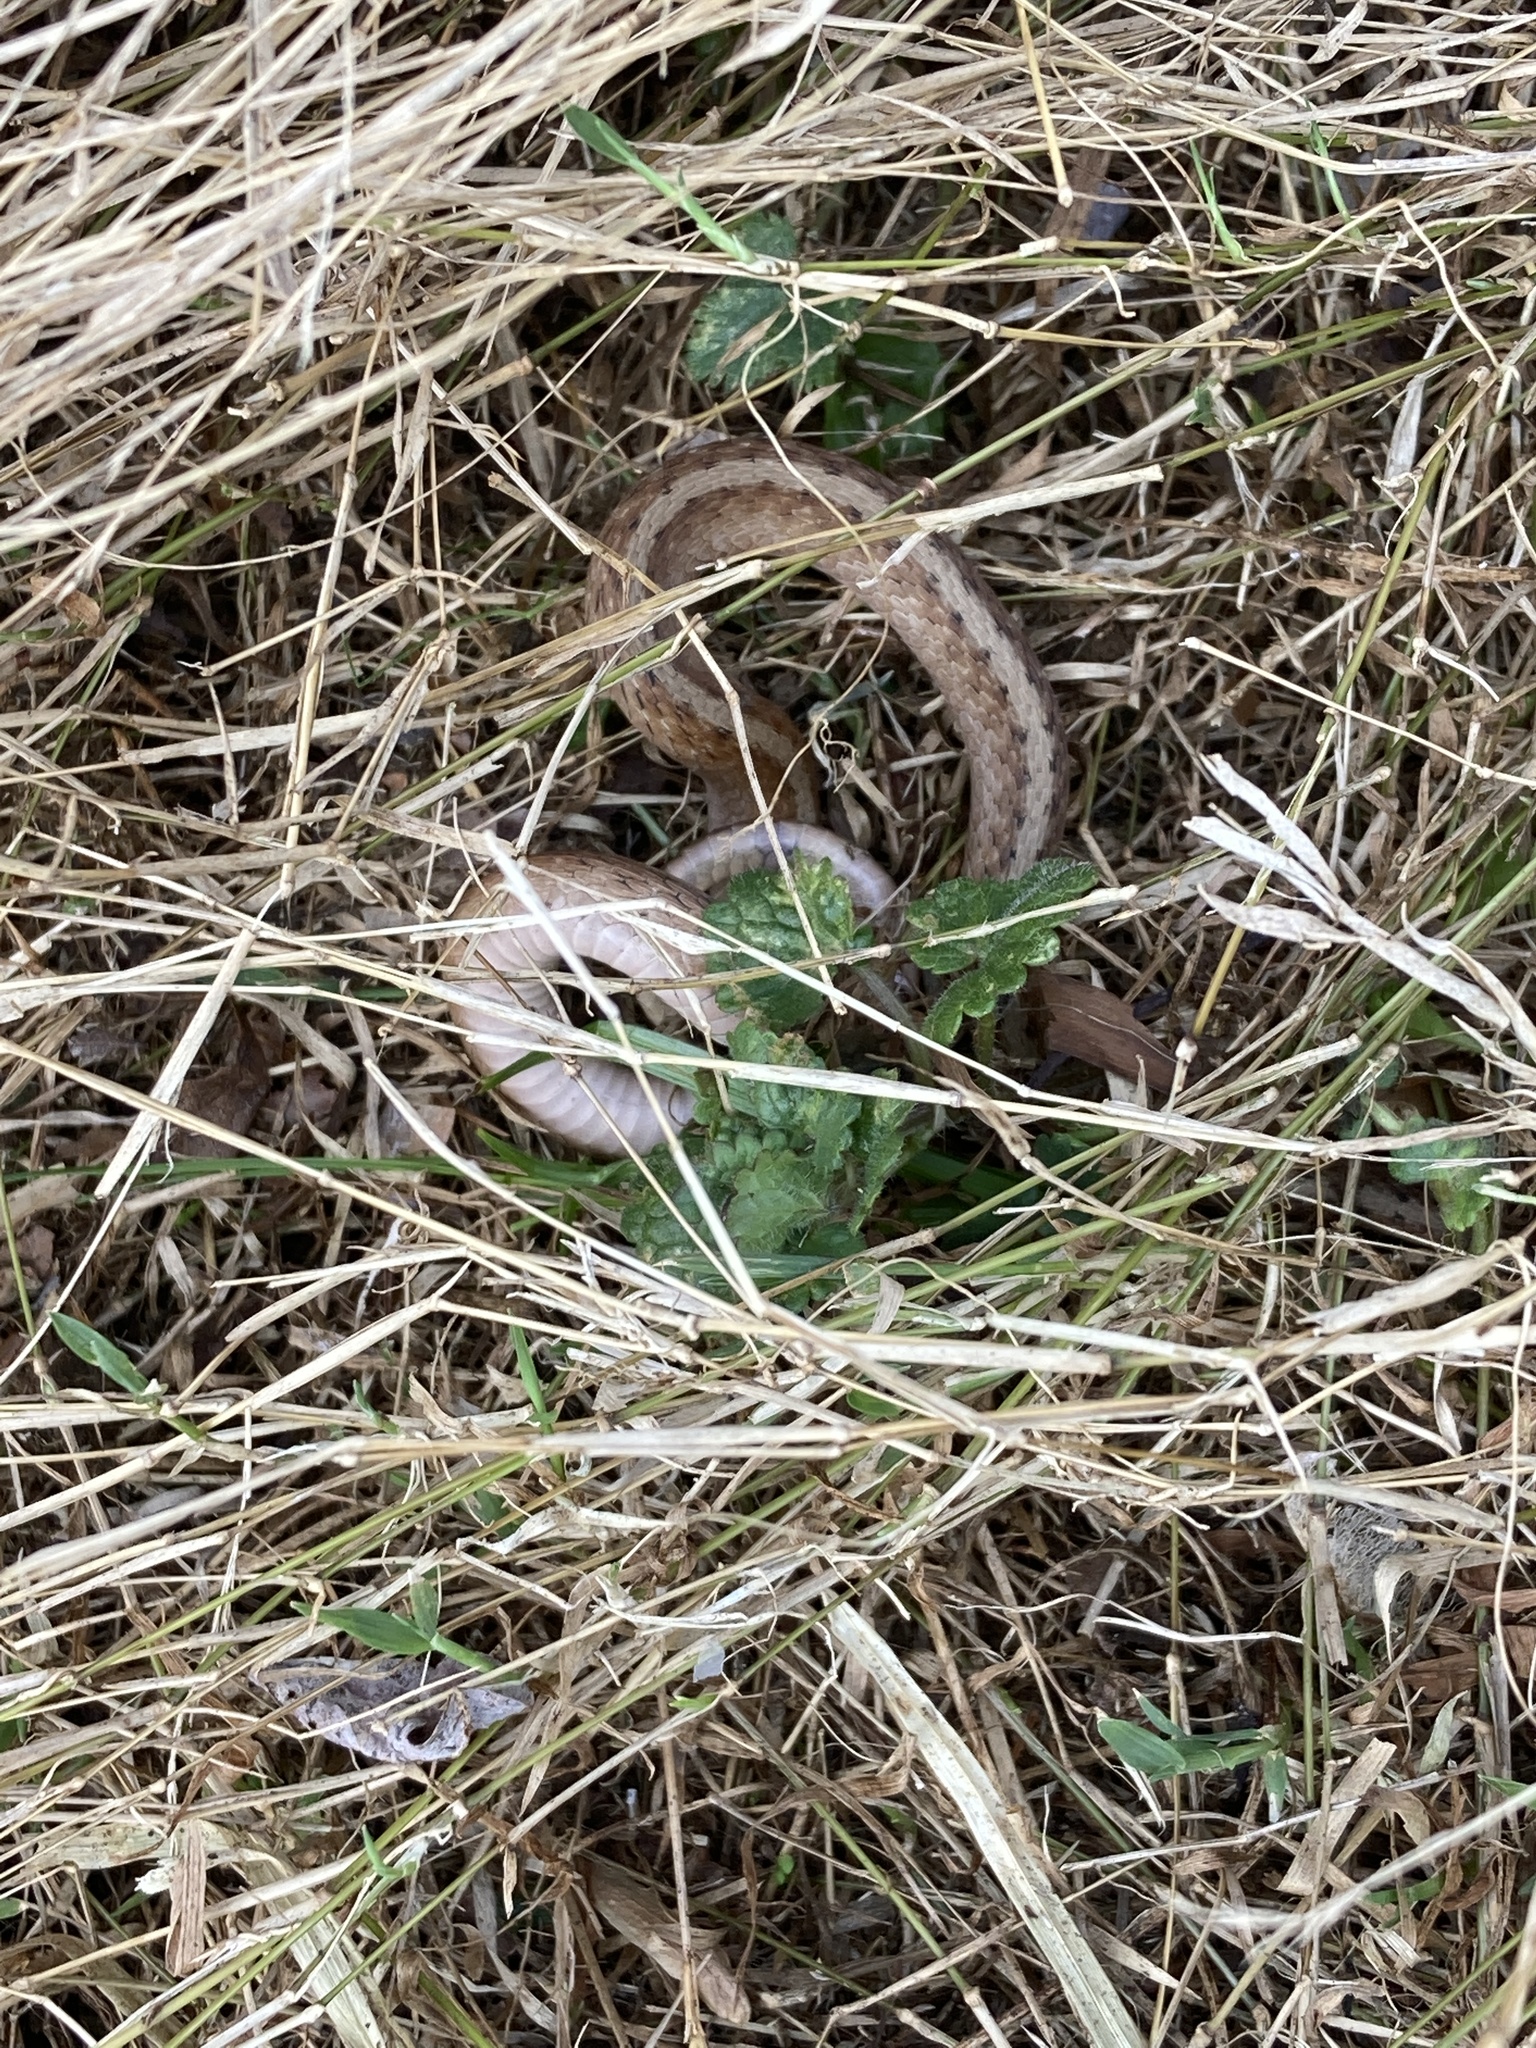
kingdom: Animalia
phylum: Chordata
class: Squamata
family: Colubridae
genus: Storeria
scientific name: Storeria dekayi
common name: (dekay’s) brown snake
